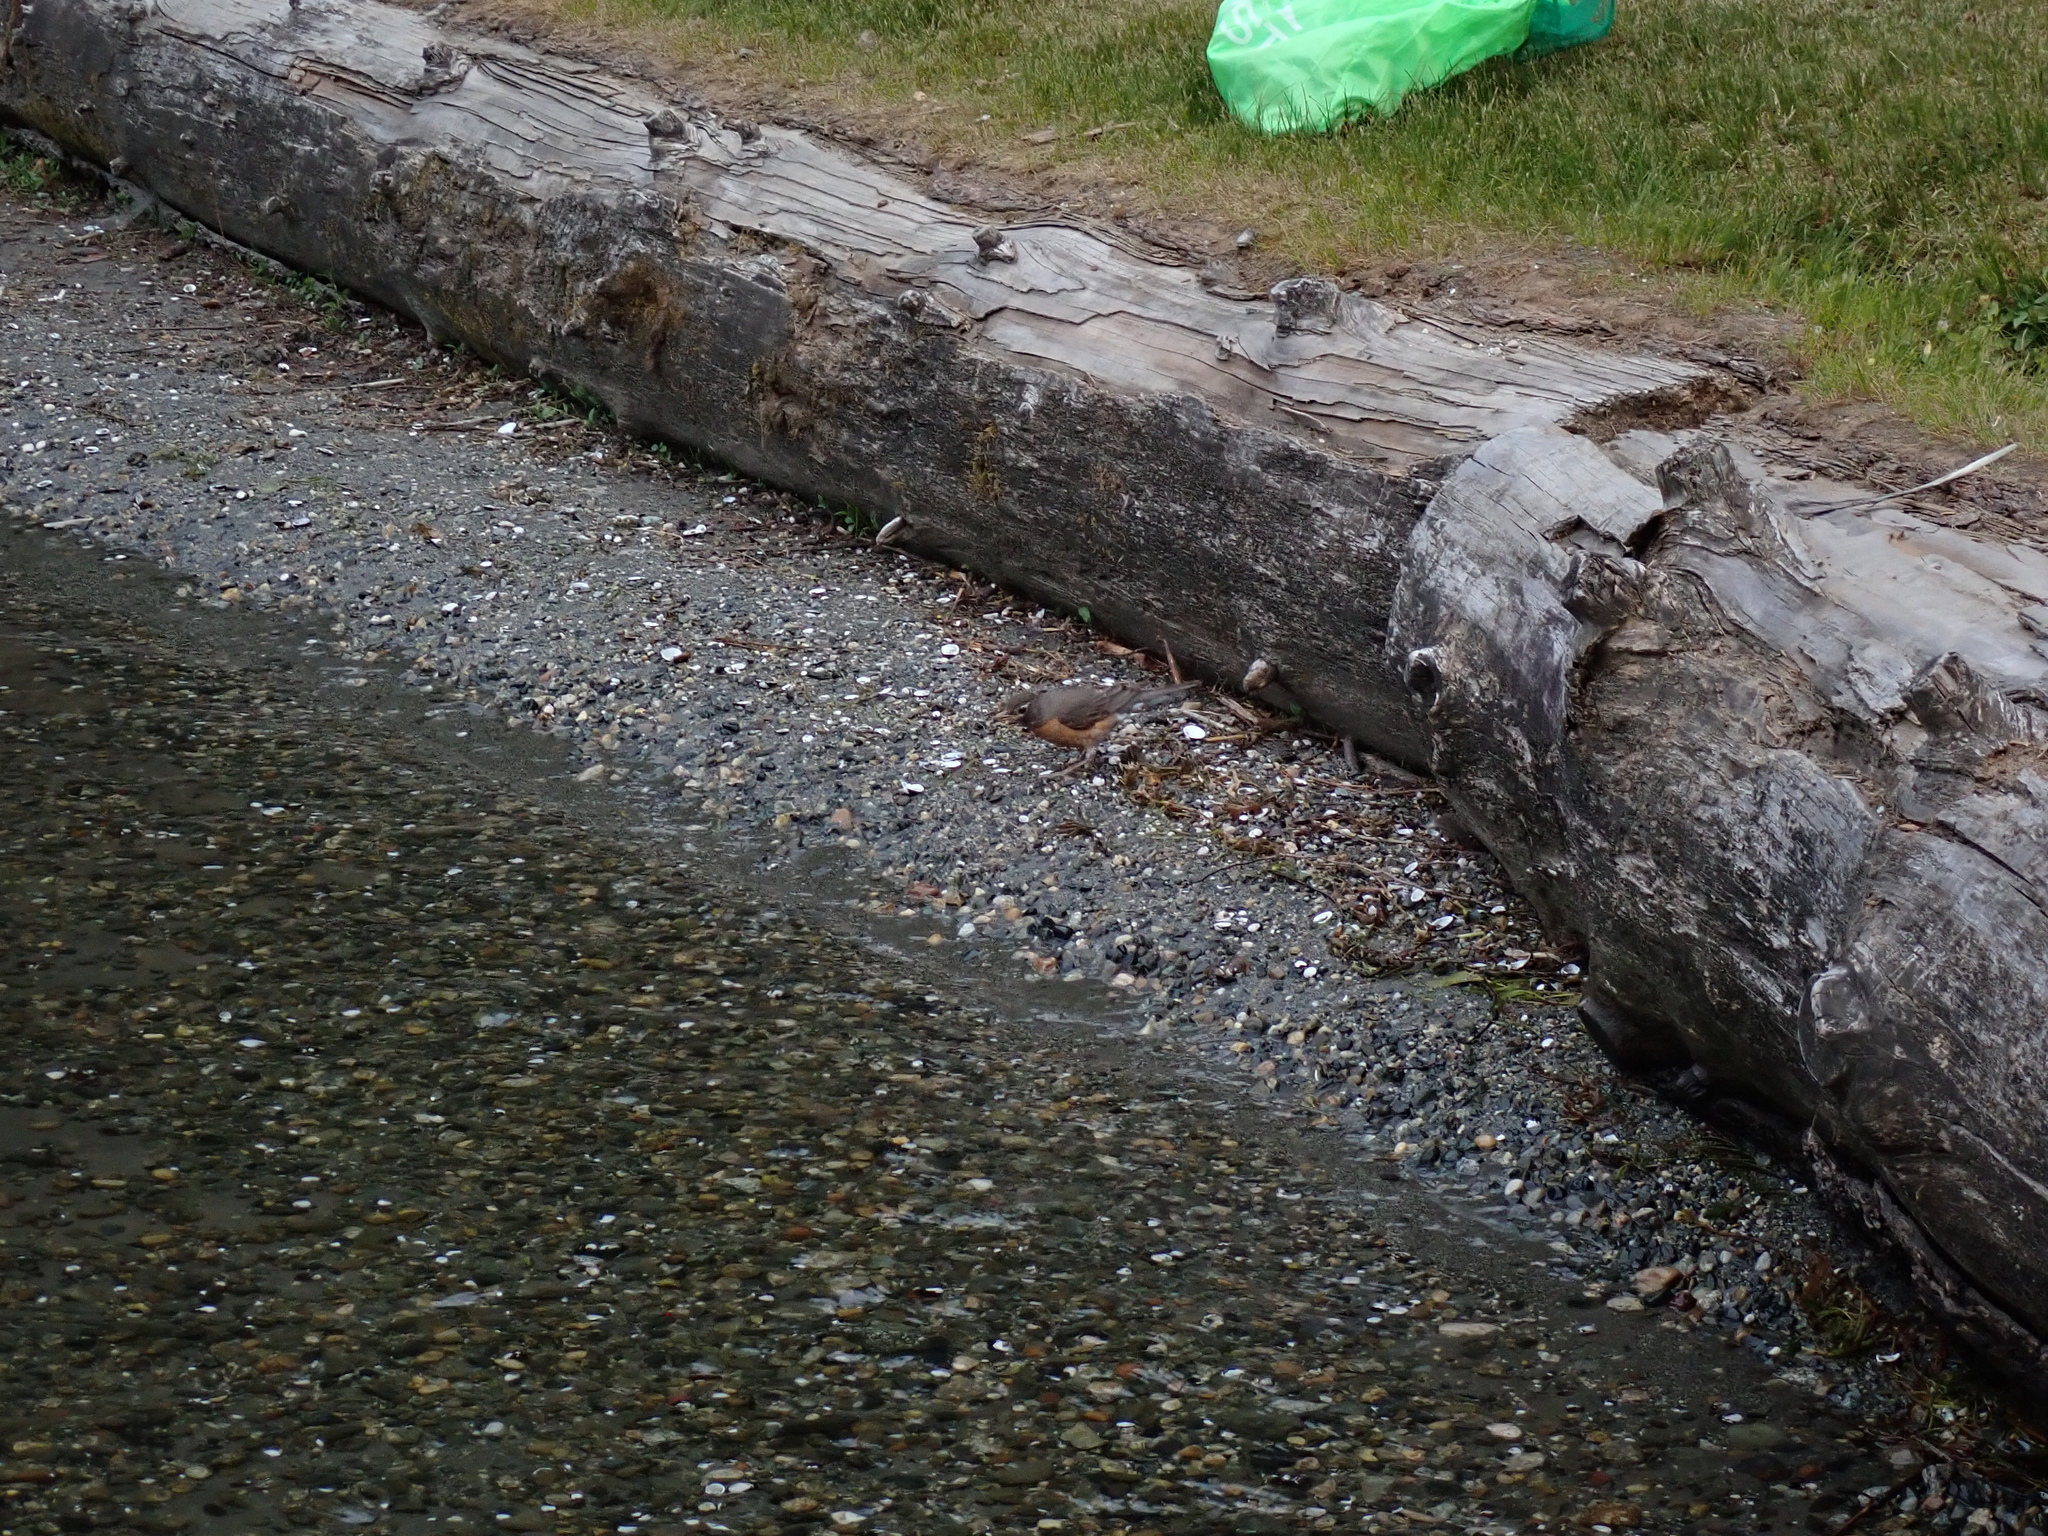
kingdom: Animalia
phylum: Chordata
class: Aves
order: Passeriformes
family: Turdidae
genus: Turdus
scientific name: Turdus migratorius
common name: American robin
